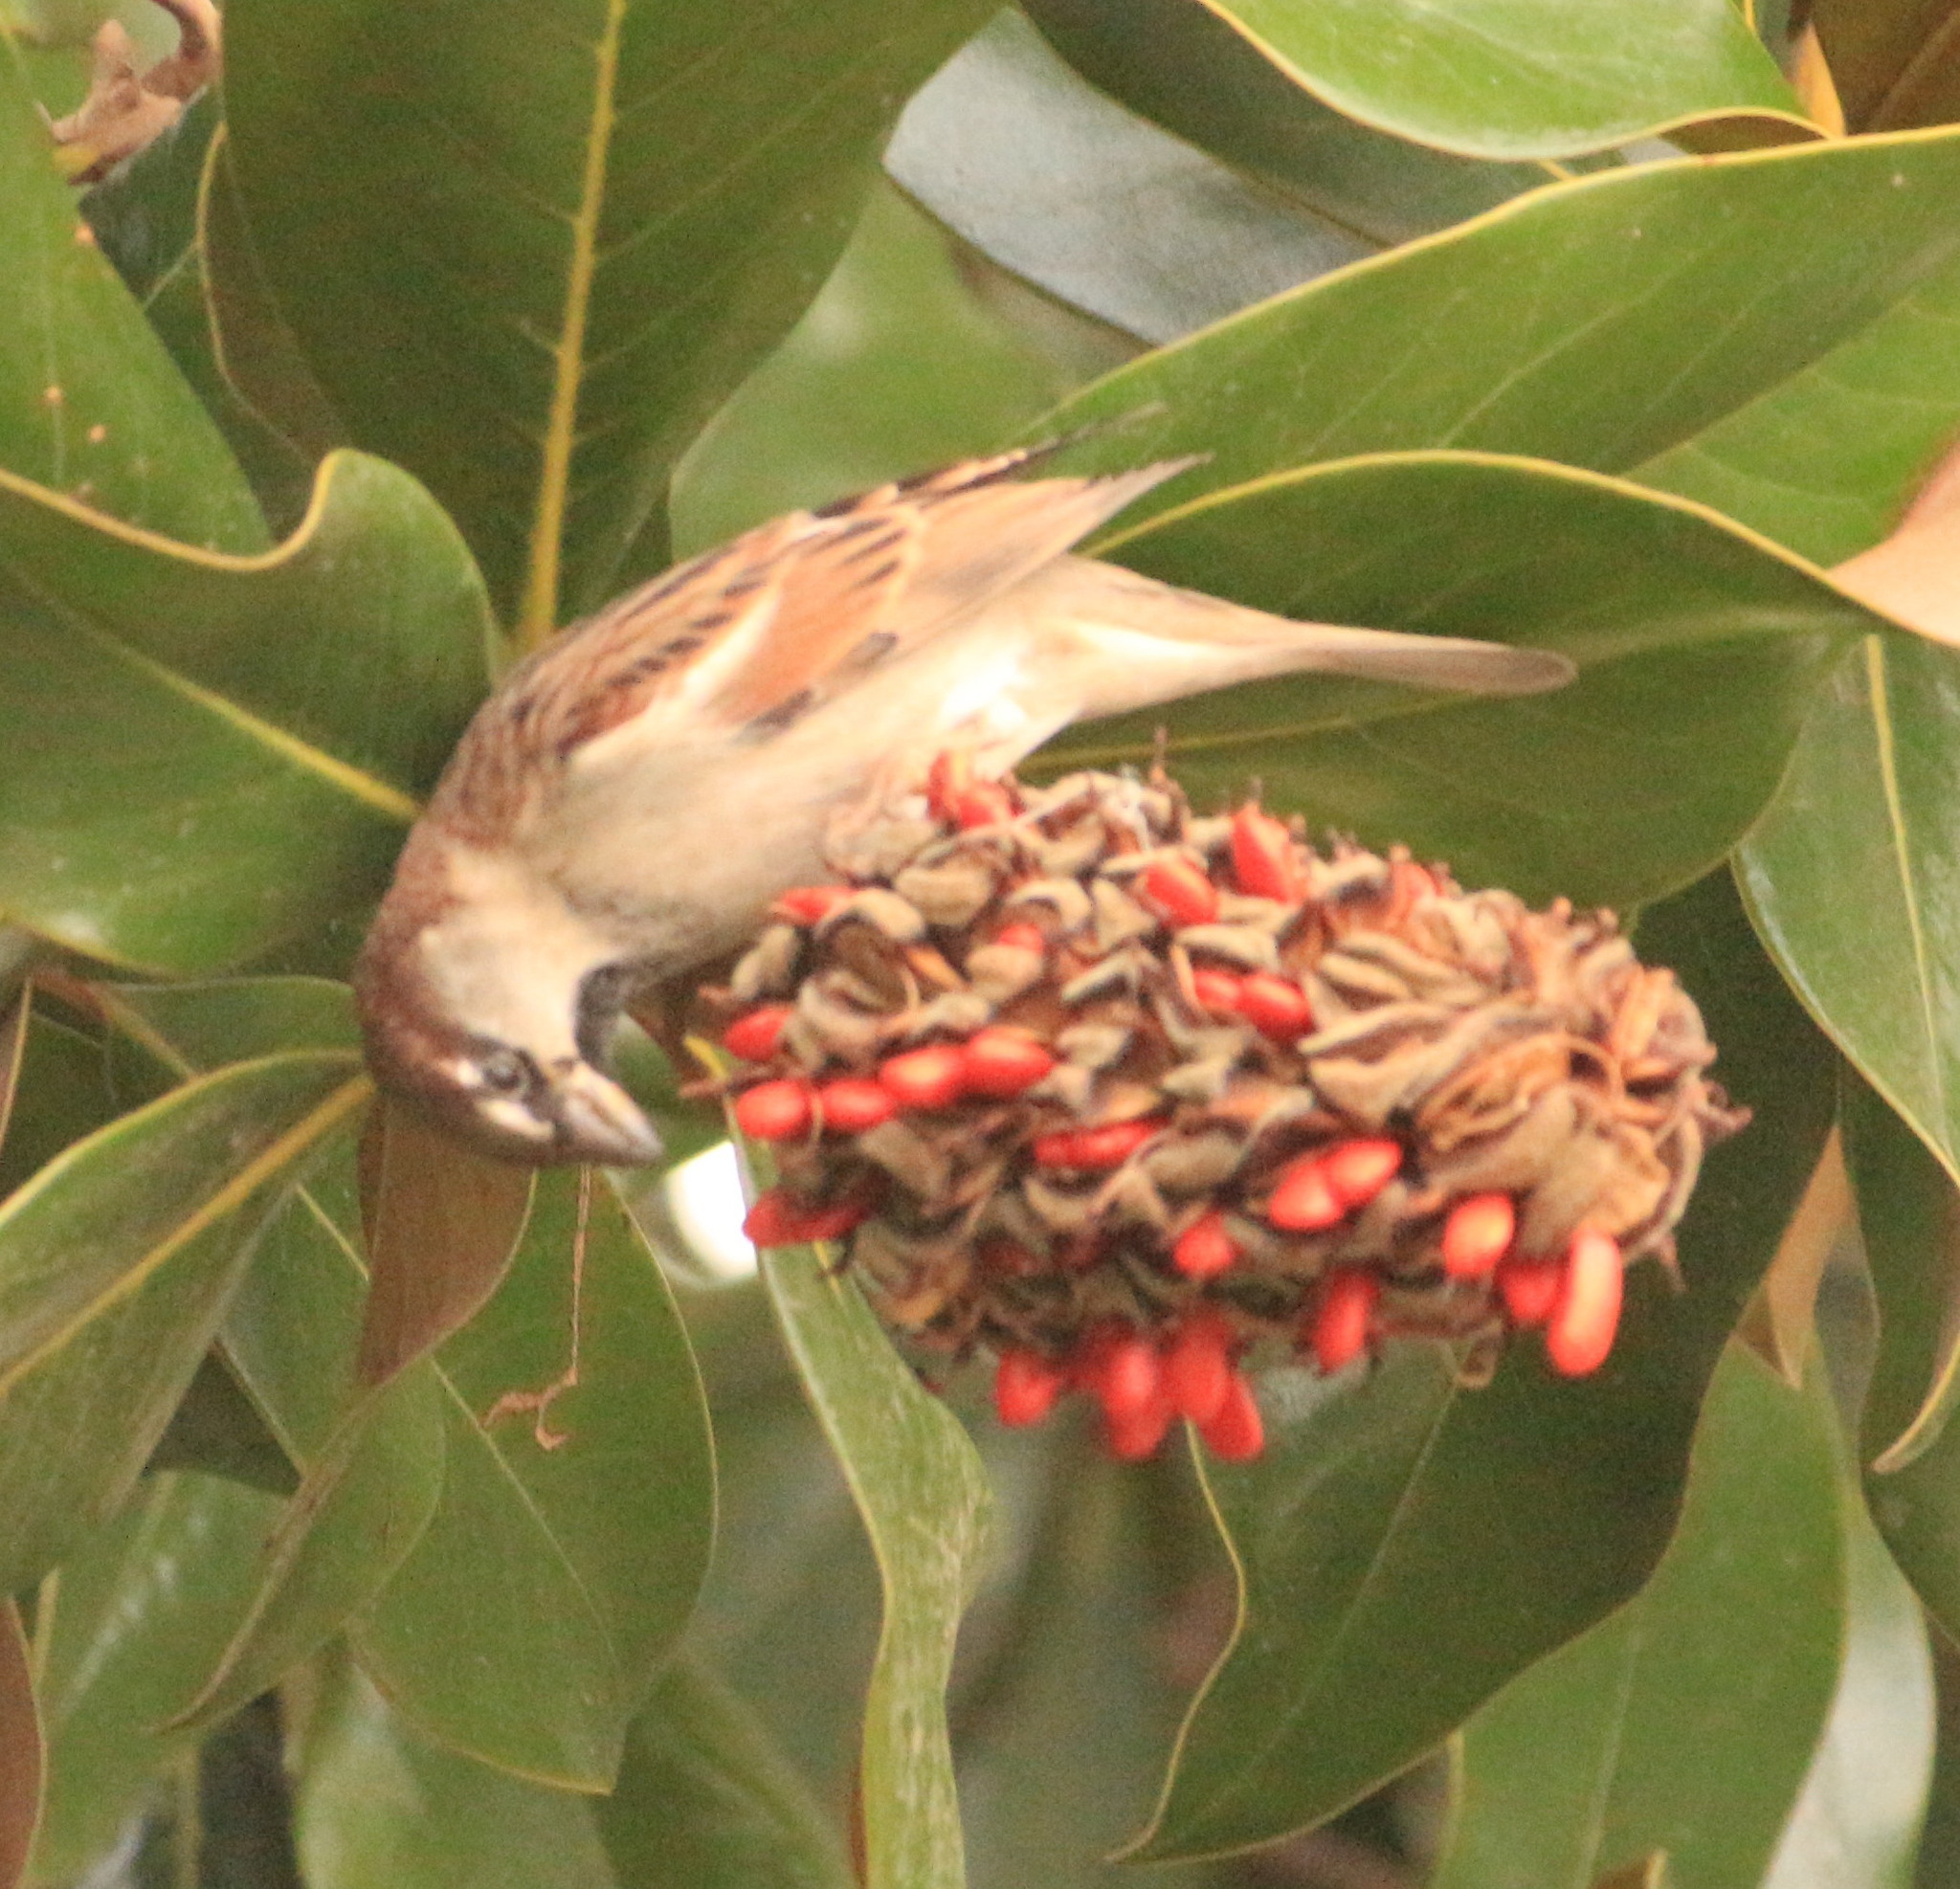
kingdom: Animalia
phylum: Chordata
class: Aves
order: Passeriformes
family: Passeridae
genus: Passer
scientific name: Passer domesticus
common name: House sparrow
